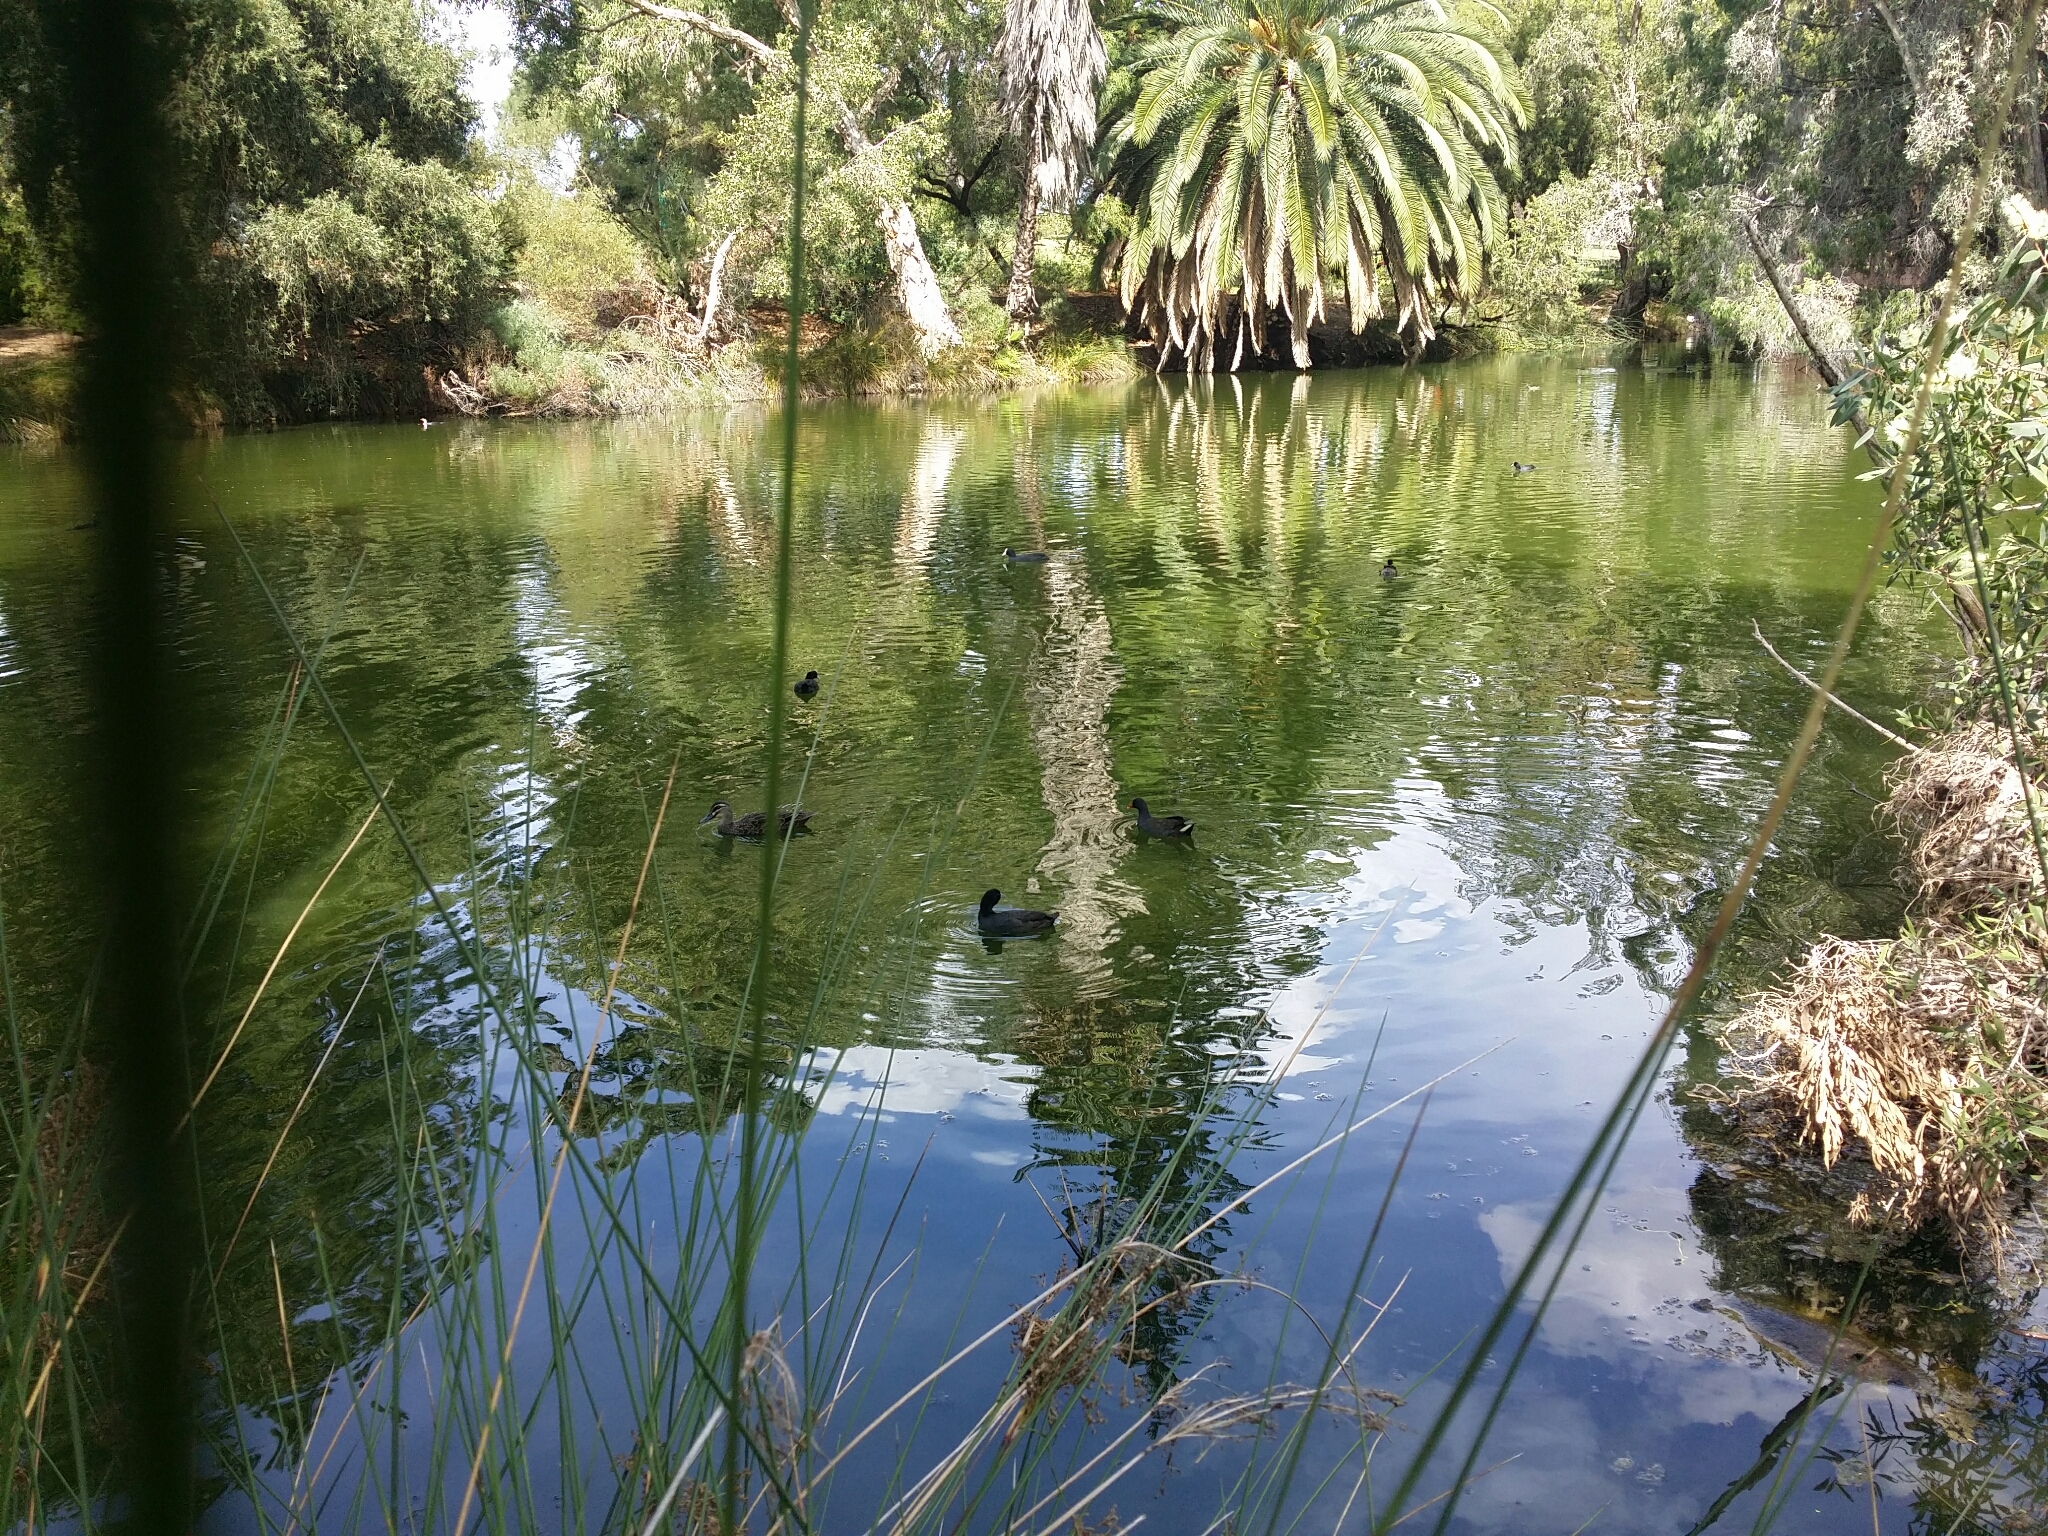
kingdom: Animalia
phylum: Chordata
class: Aves
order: Gruiformes
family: Rallidae
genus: Gallinula
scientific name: Gallinula tenebrosa
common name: Dusky moorhen
